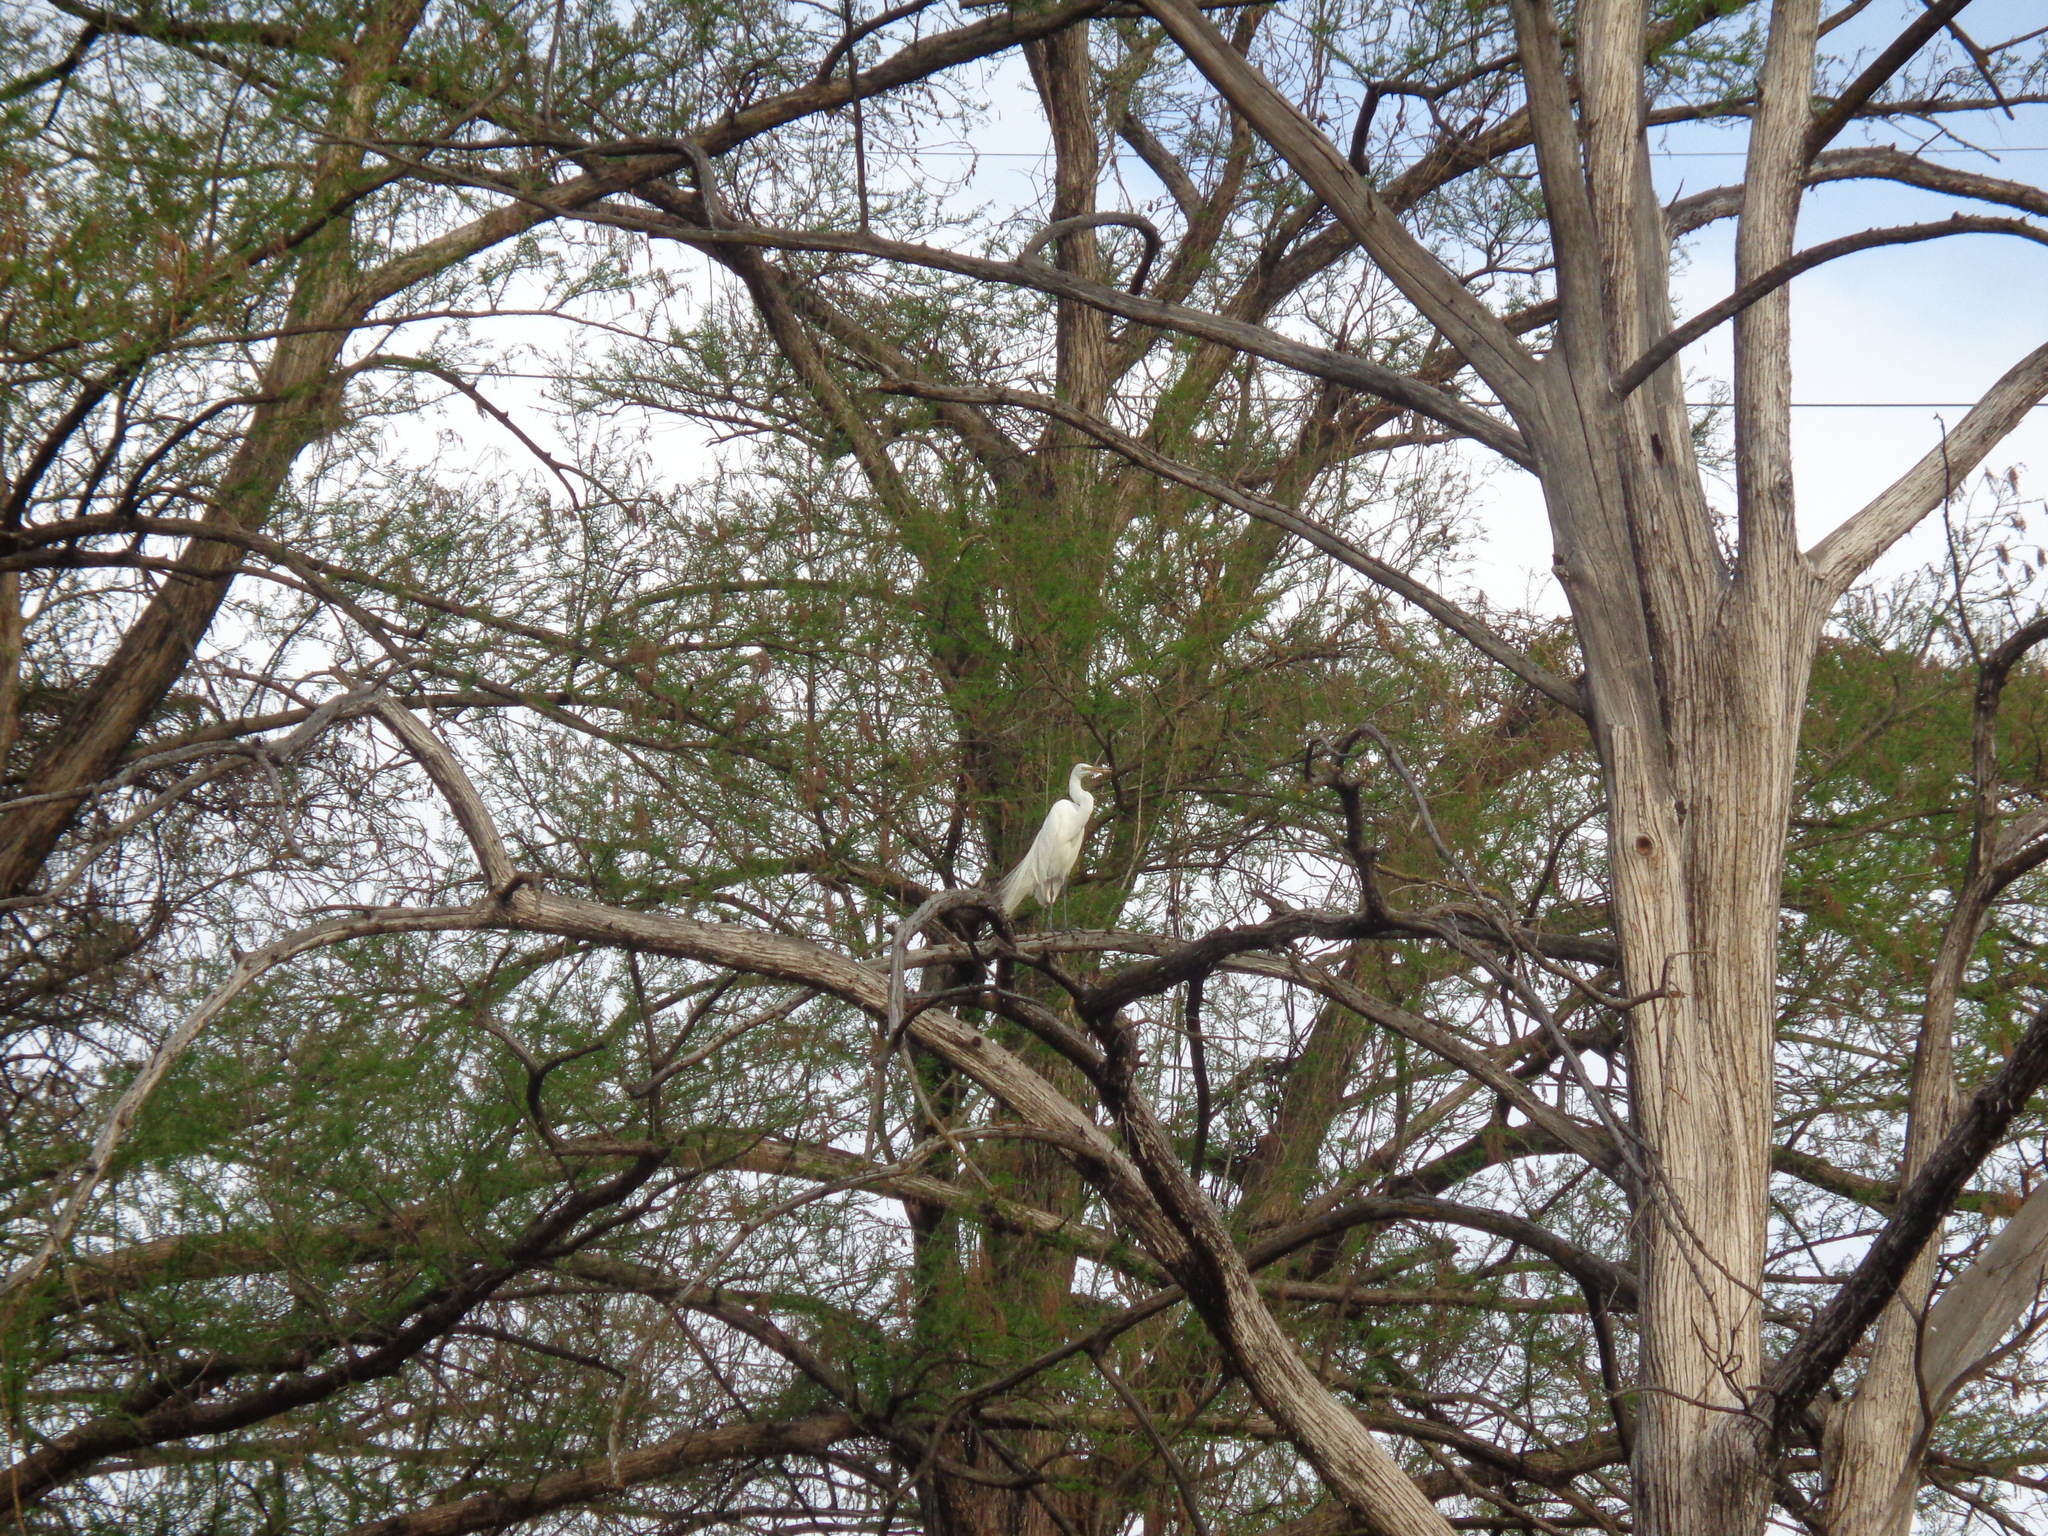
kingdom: Animalia
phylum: Chordata
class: Aves
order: Pelecaniformes
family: Ardeidae
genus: Ardea
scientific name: Ardea alba
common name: Great egret
